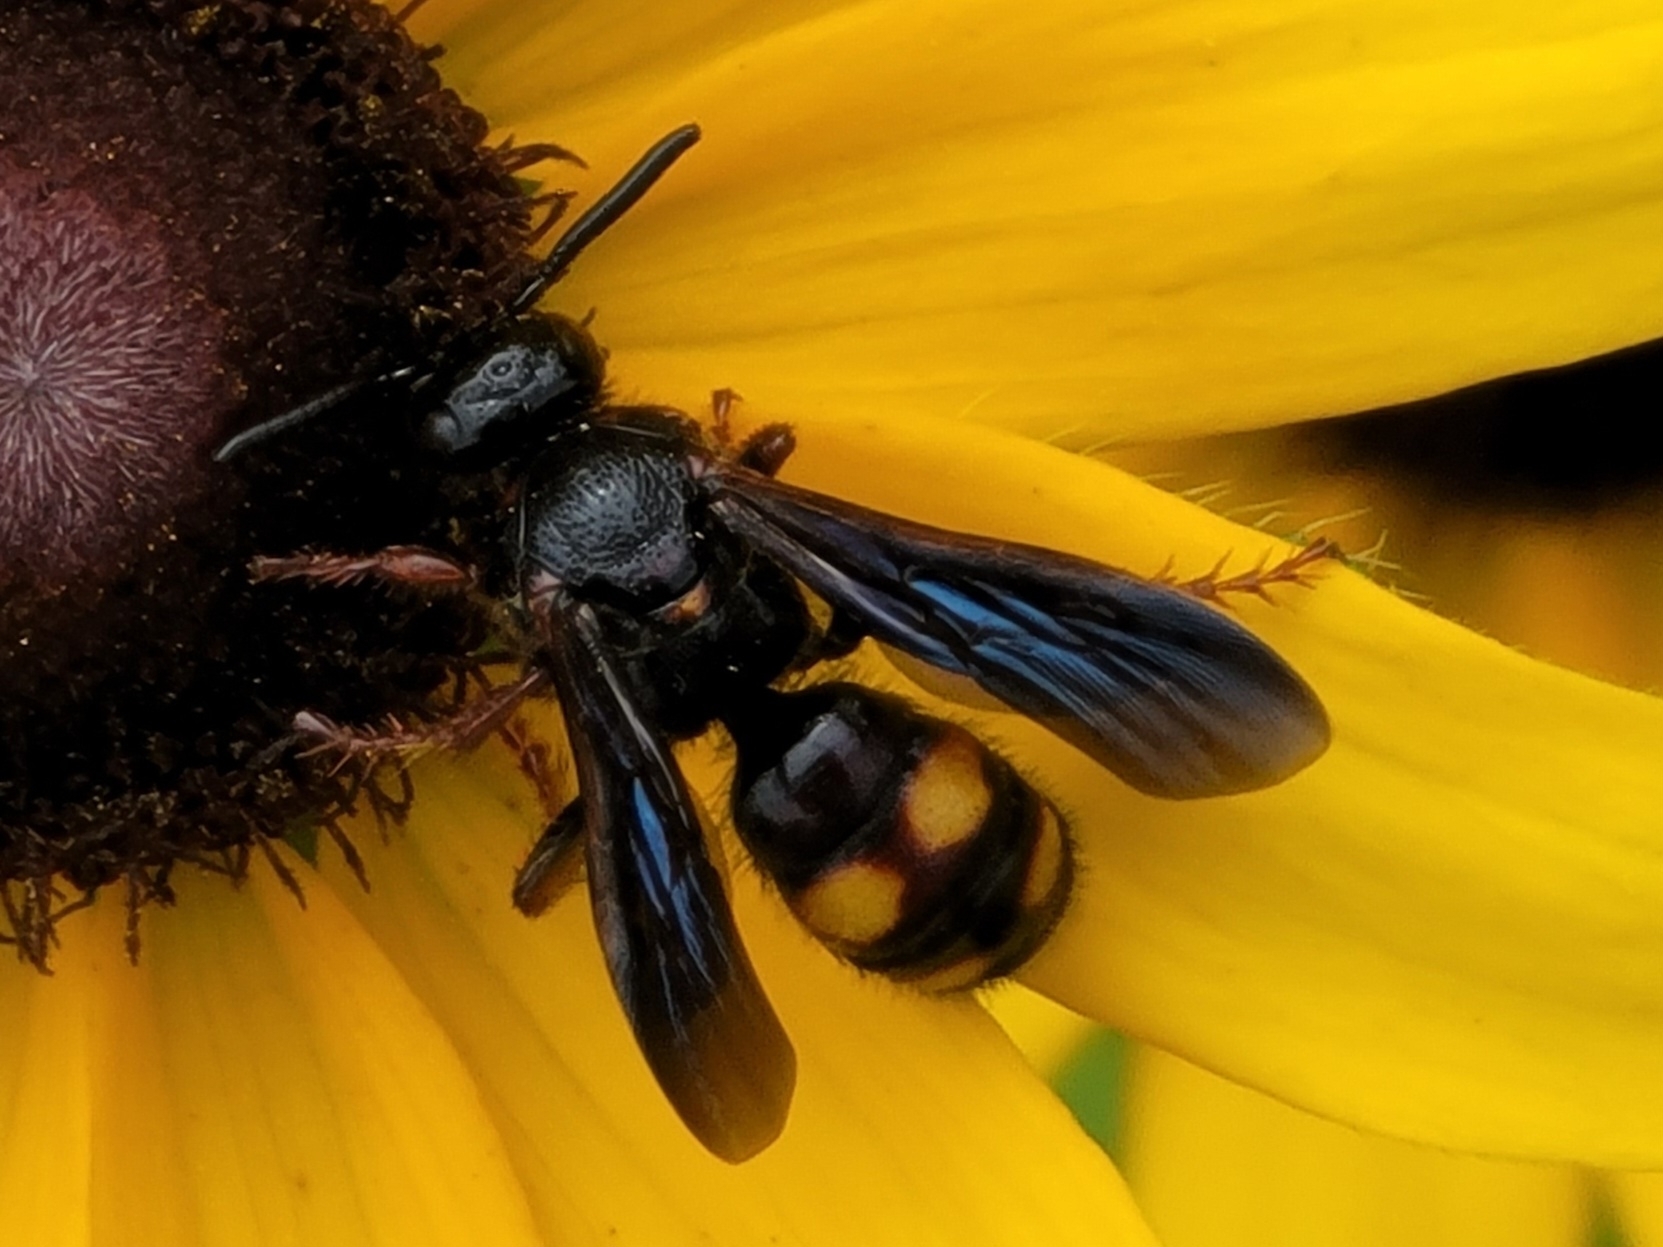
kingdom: Animalia
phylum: Arthropoda
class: Insecta
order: Hymenoptera
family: Scoliidae
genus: Scolia
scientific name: Scolia nobilitata
